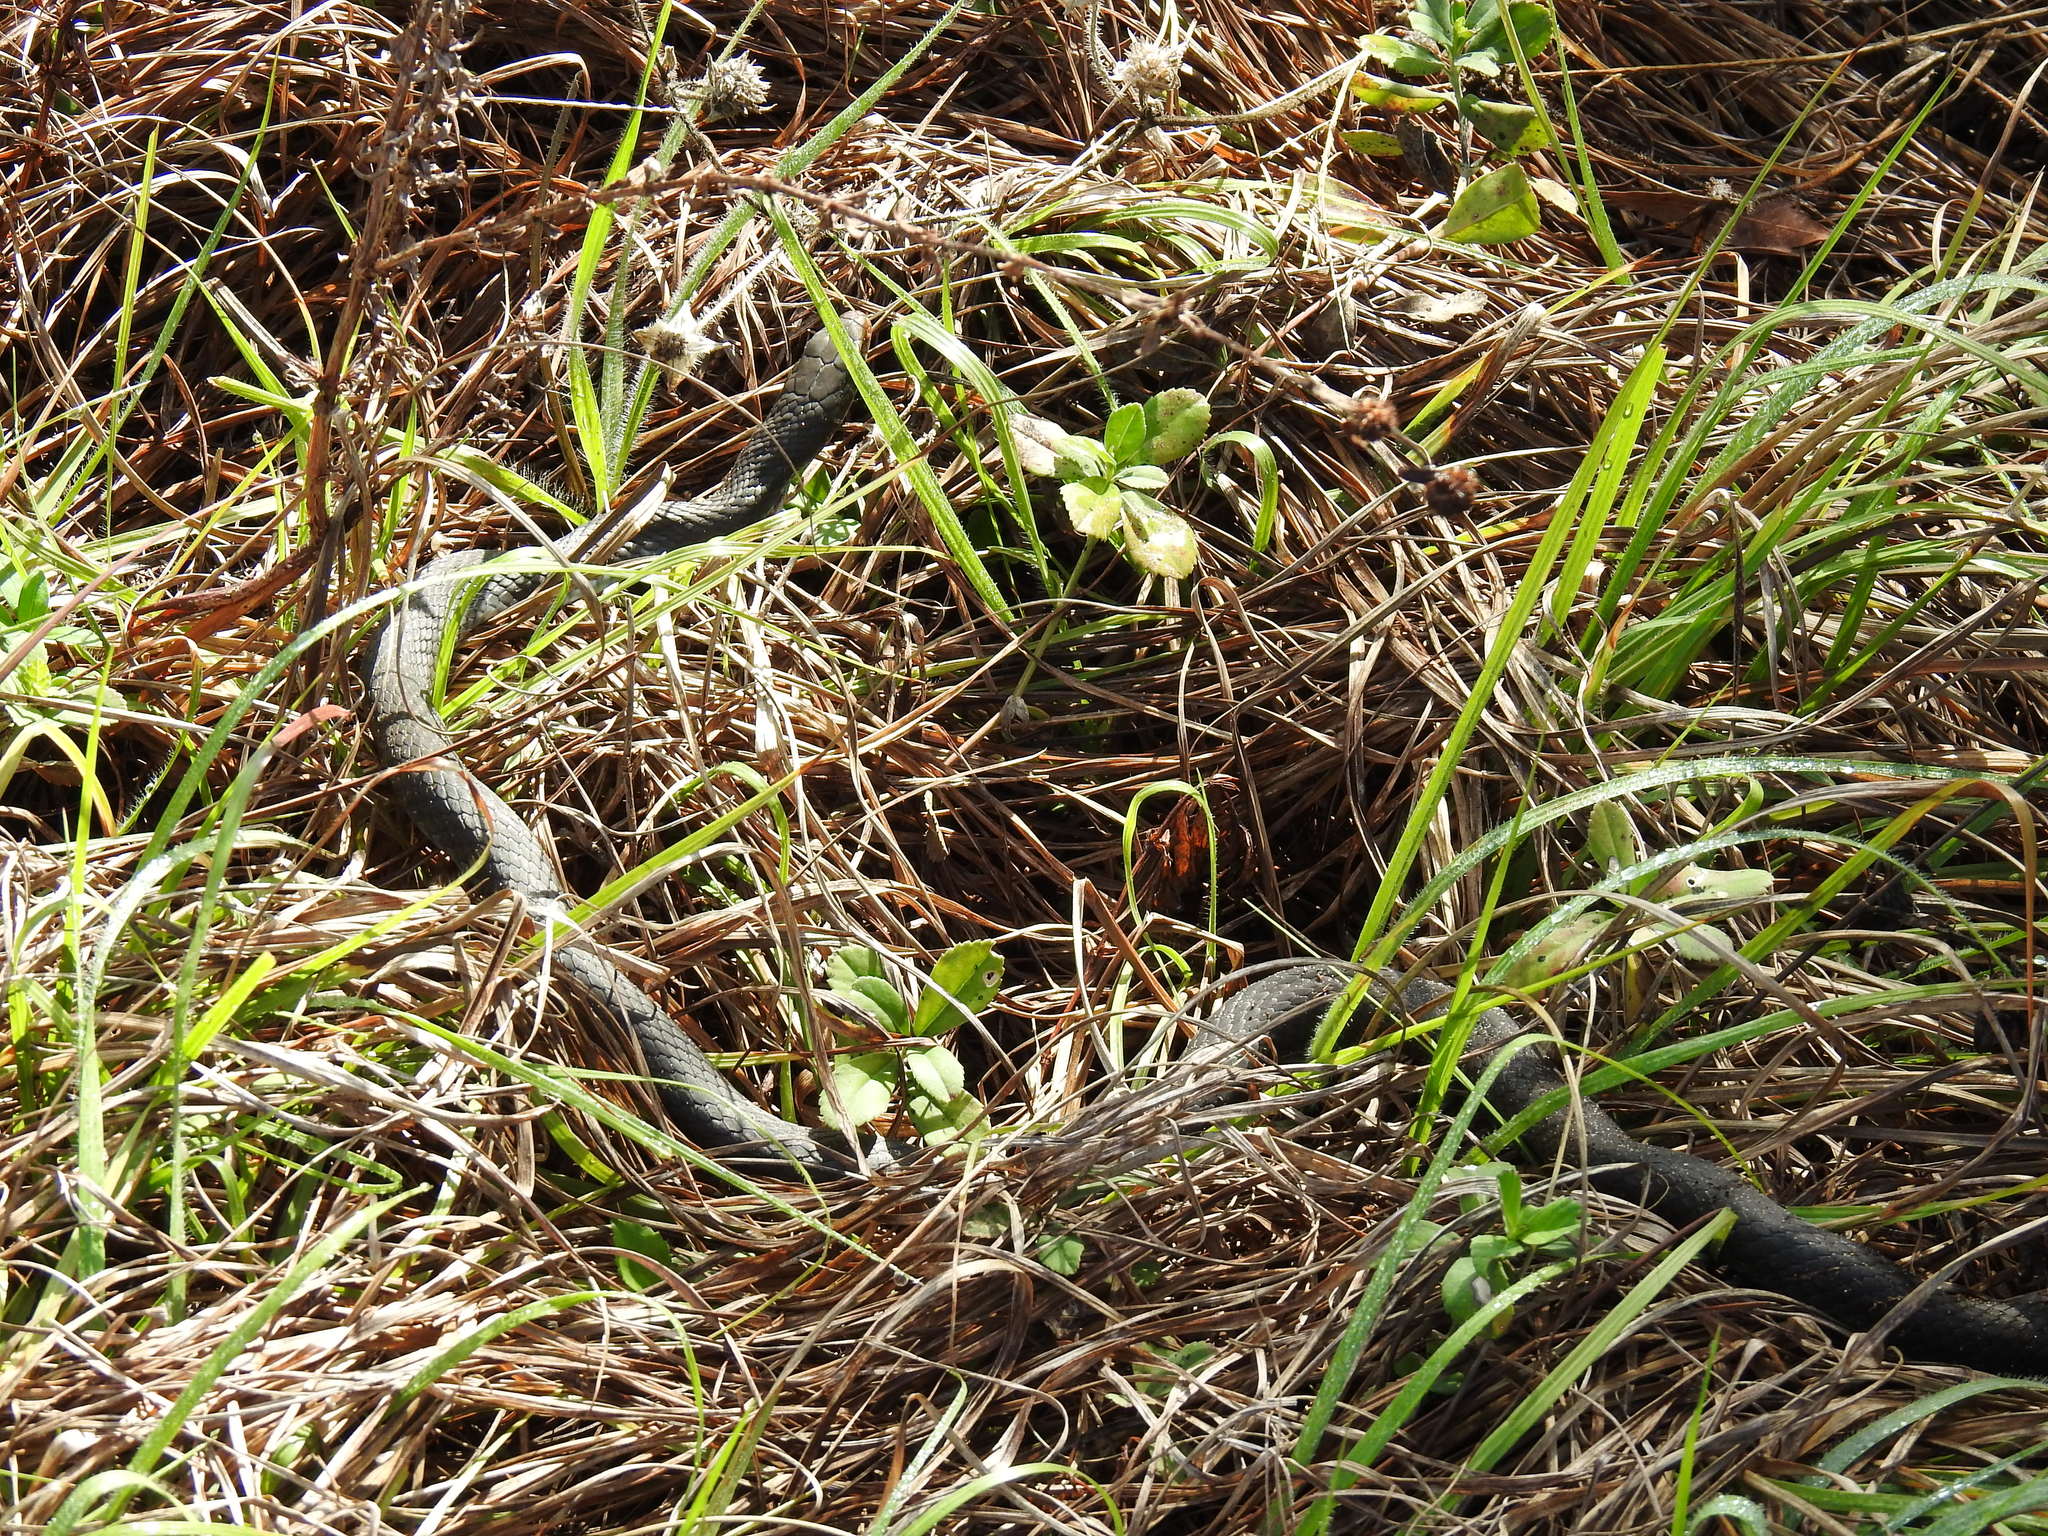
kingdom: Animalia
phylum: Chordata
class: Squamata
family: Colubridae
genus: Coluber
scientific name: Coluber constrictor
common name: Eastern racer
